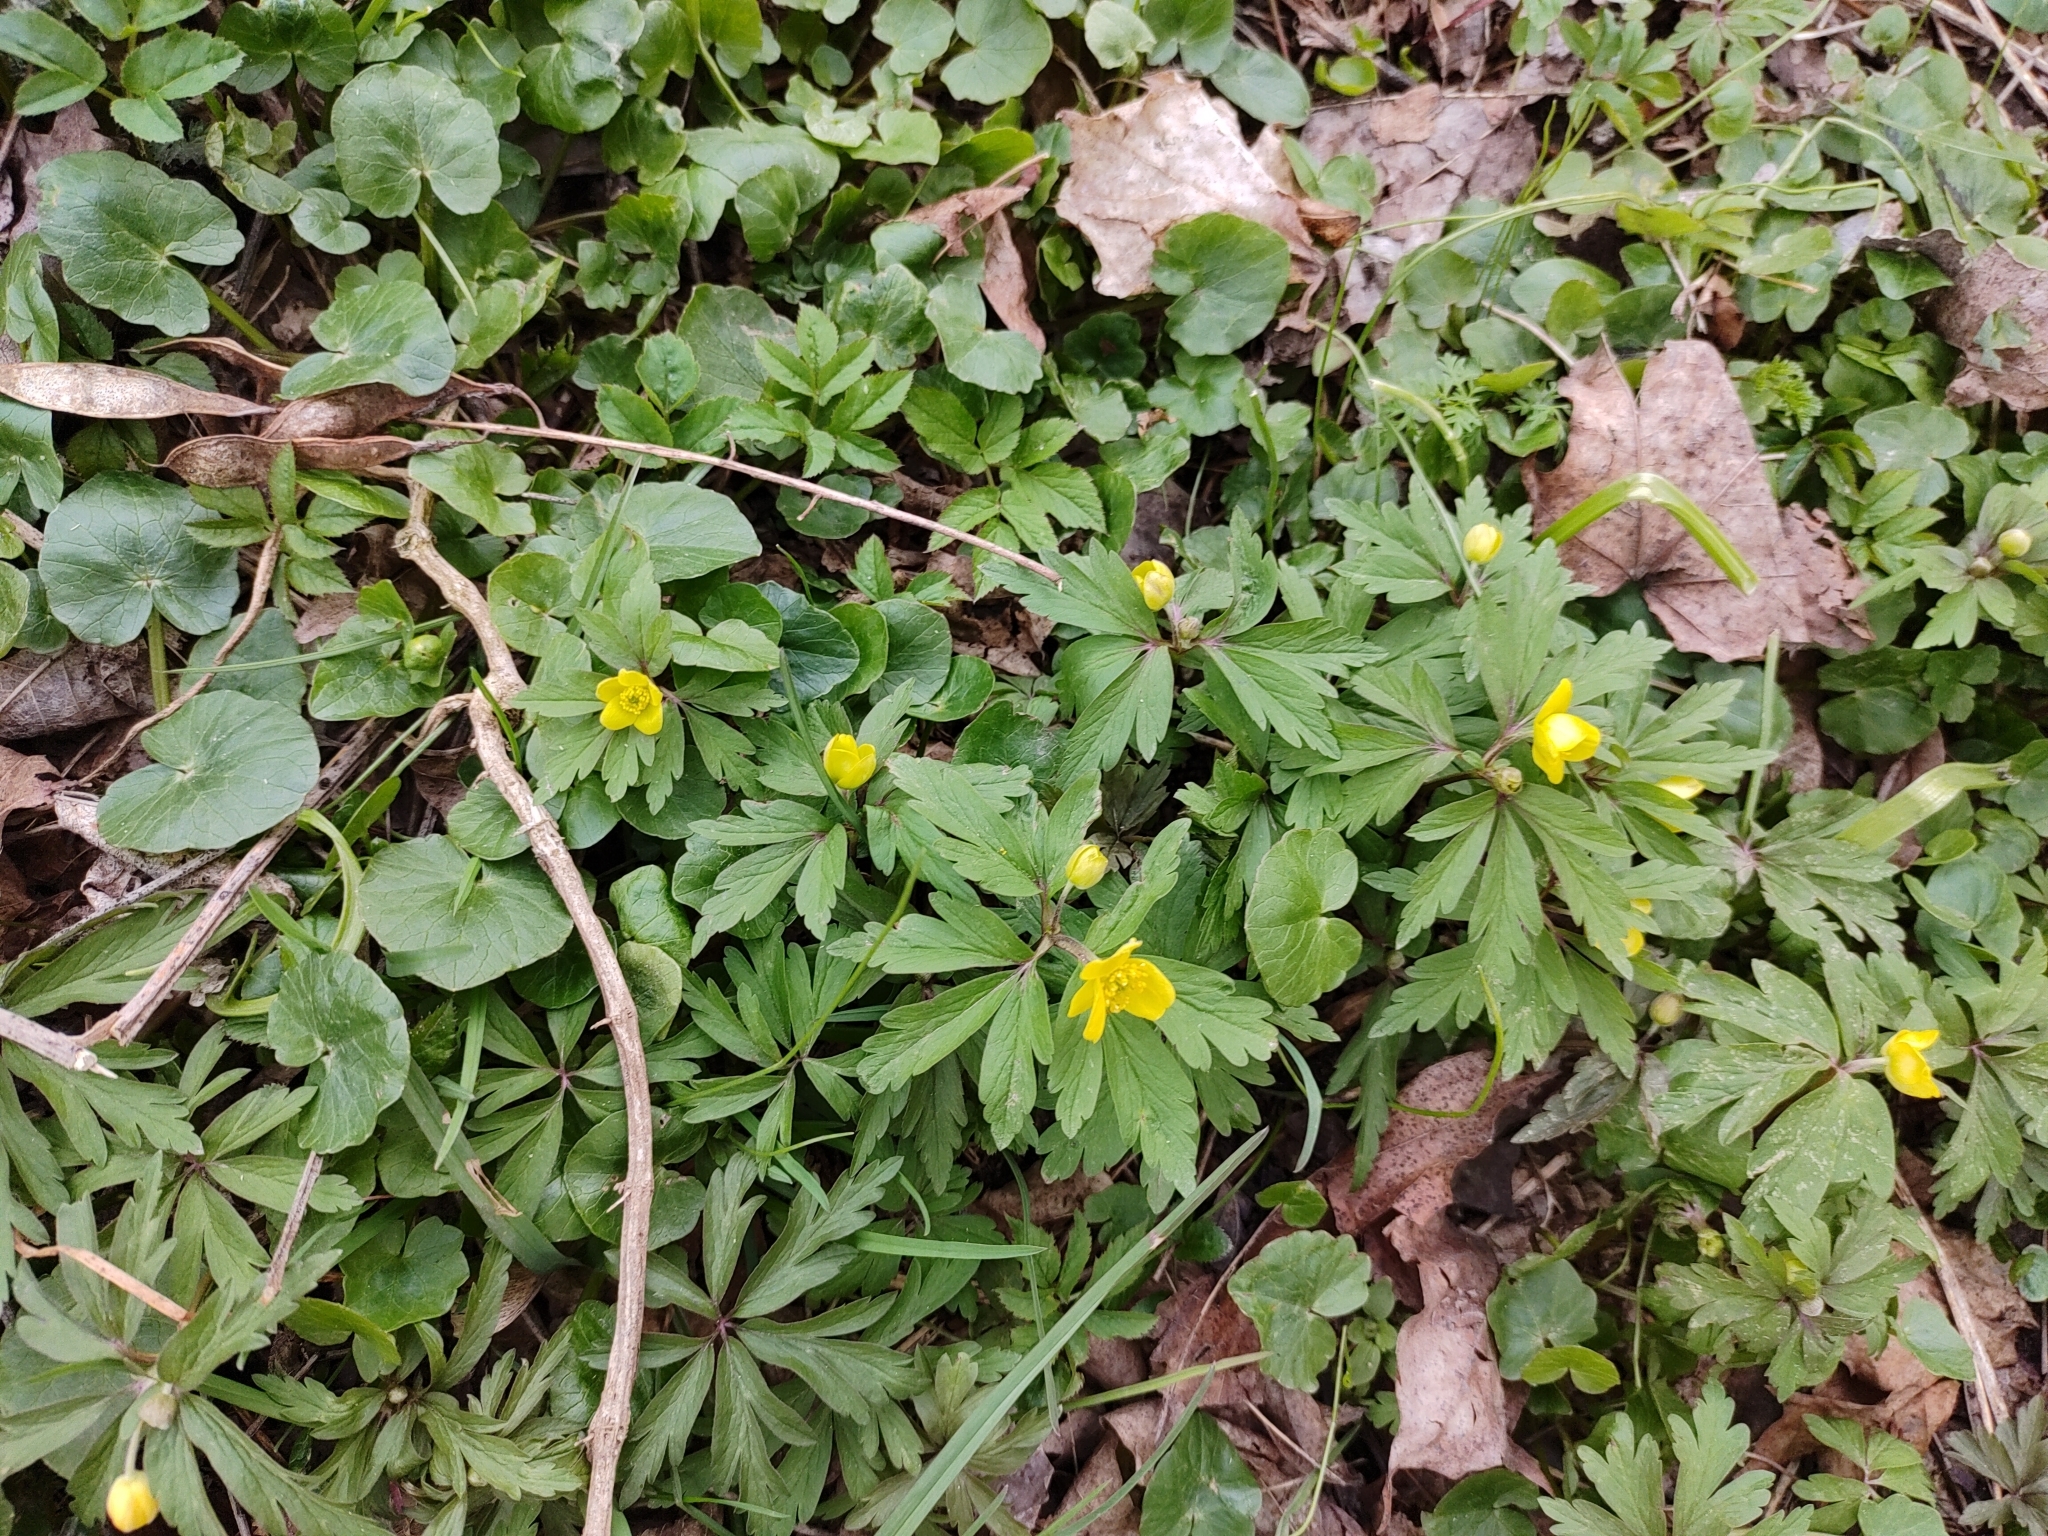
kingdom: Plantae
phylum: Tracheophyta
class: Magnoliopsida
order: Ranunculales
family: Ranunculaceae
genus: Anemone
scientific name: Anemone ranunculoides
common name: Yellow anemone
